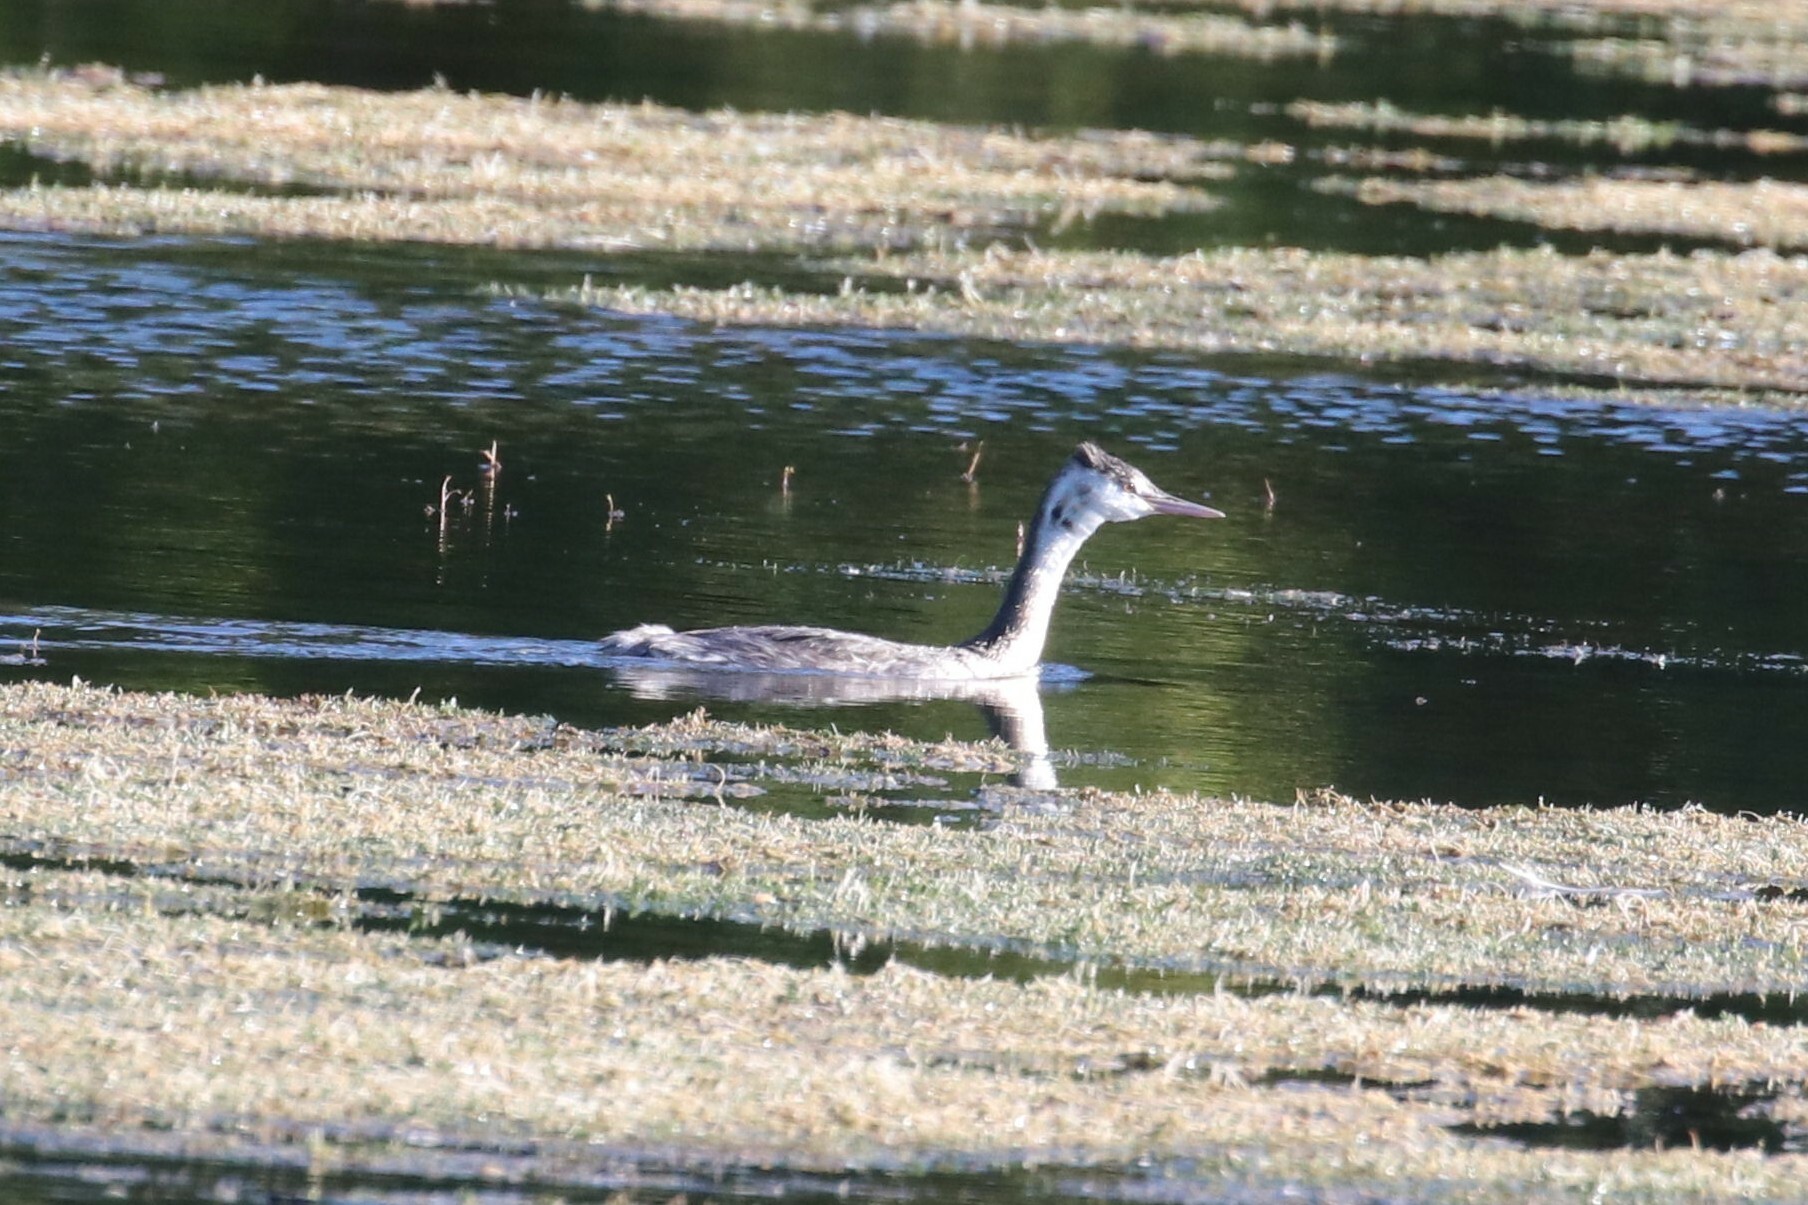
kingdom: Animalia
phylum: Chordata
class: Aves
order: Podicipediformes
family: Podicipedidae
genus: Podiceps
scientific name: Podiceps cristatus
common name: Great crested grebe
